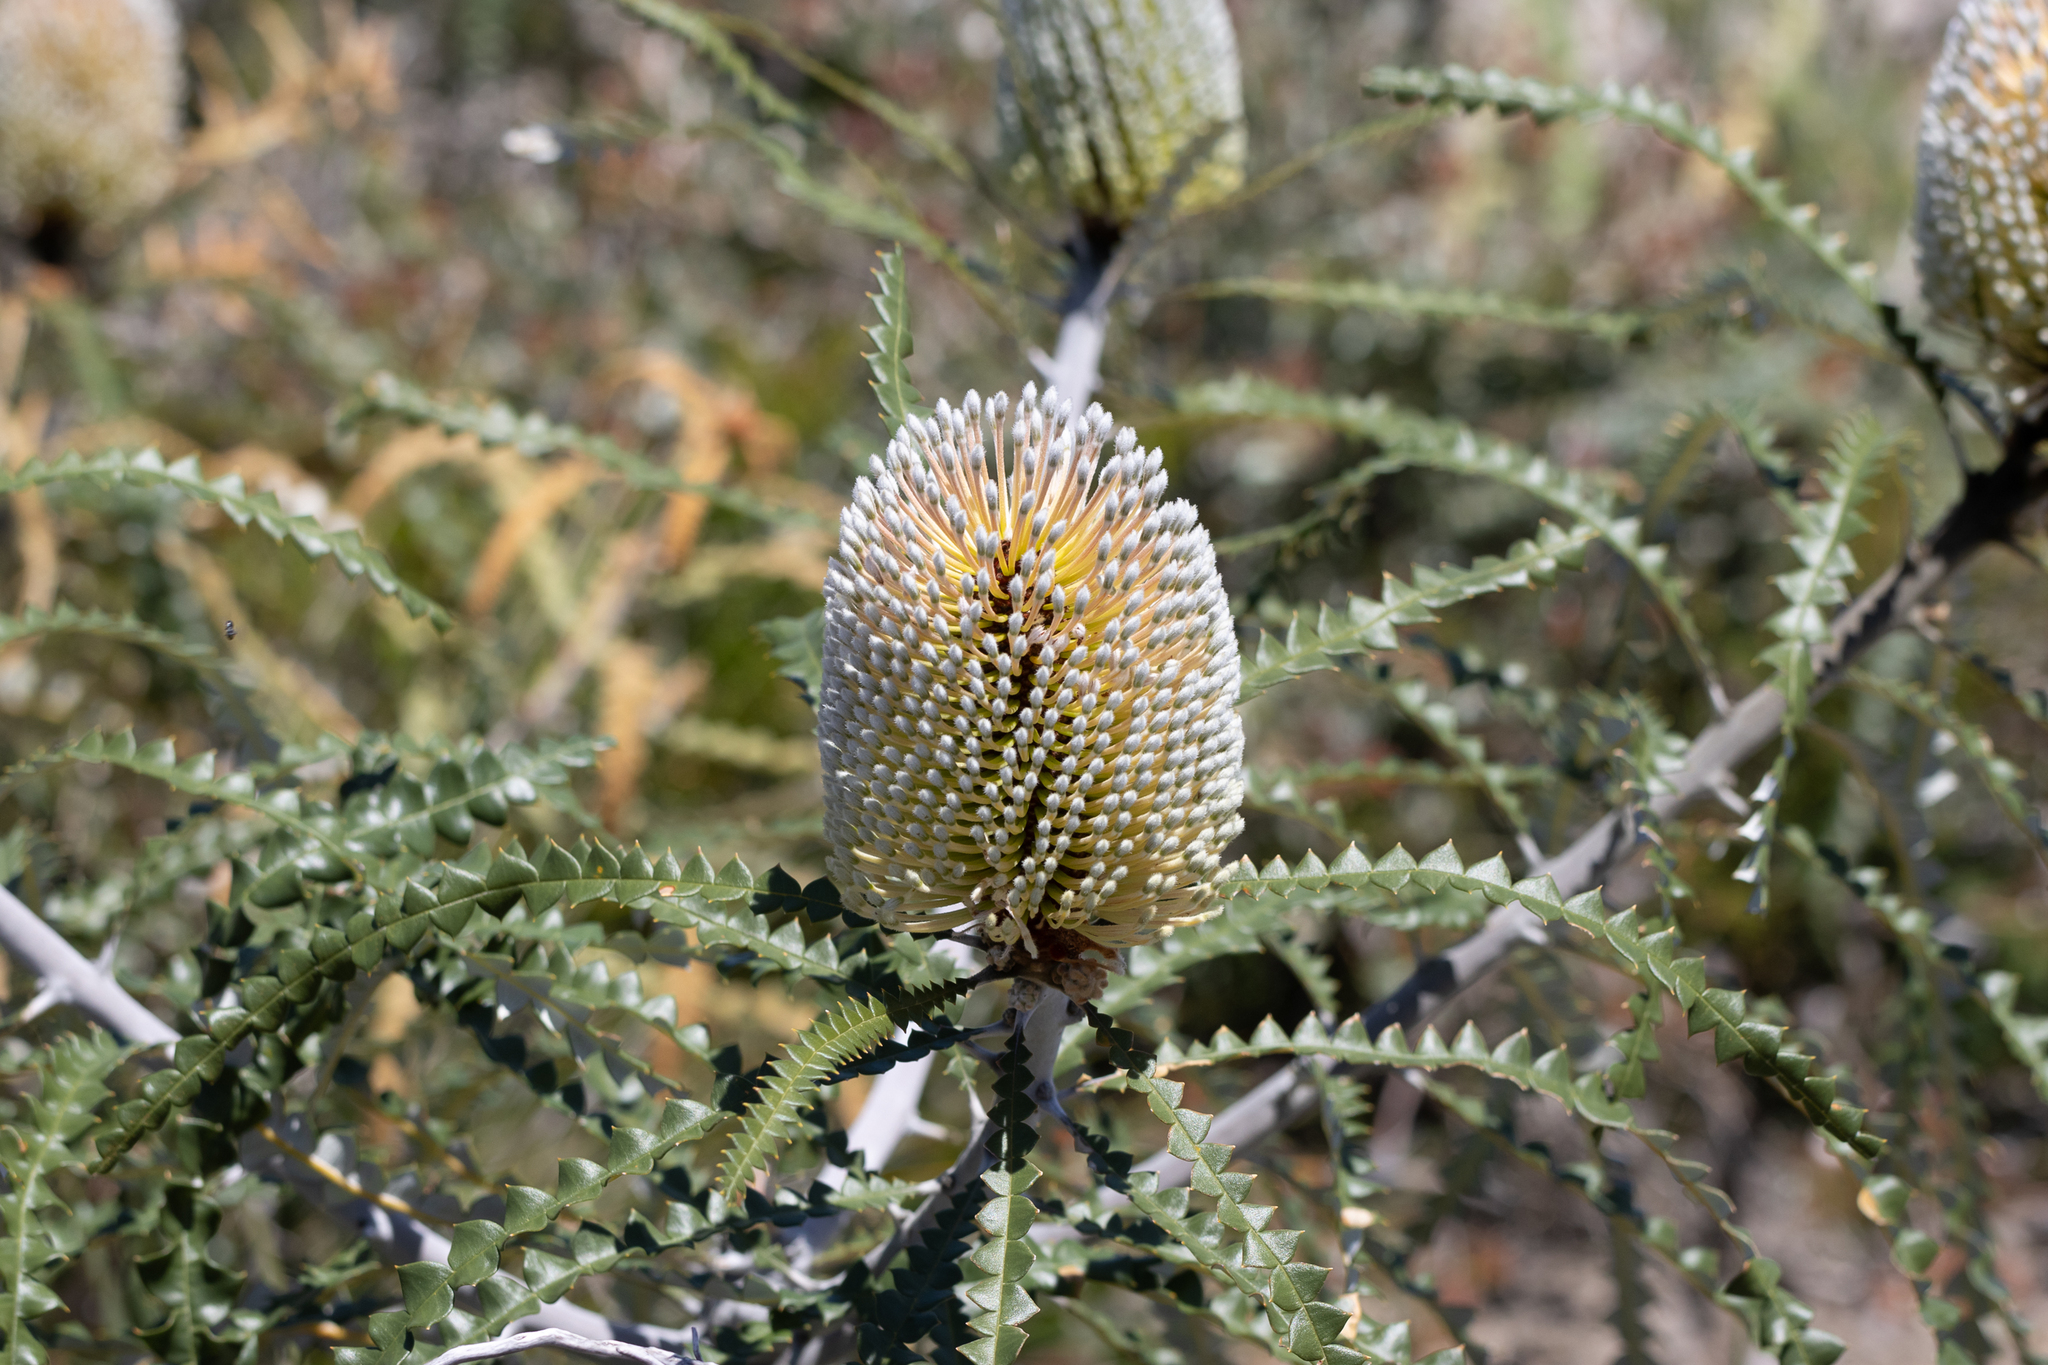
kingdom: Plantae
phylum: Tracheophyta
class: Magnoliopsida
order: Proteales
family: Proteaceae
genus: Banksia
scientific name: Banksia speciosa
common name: Showy banksia
